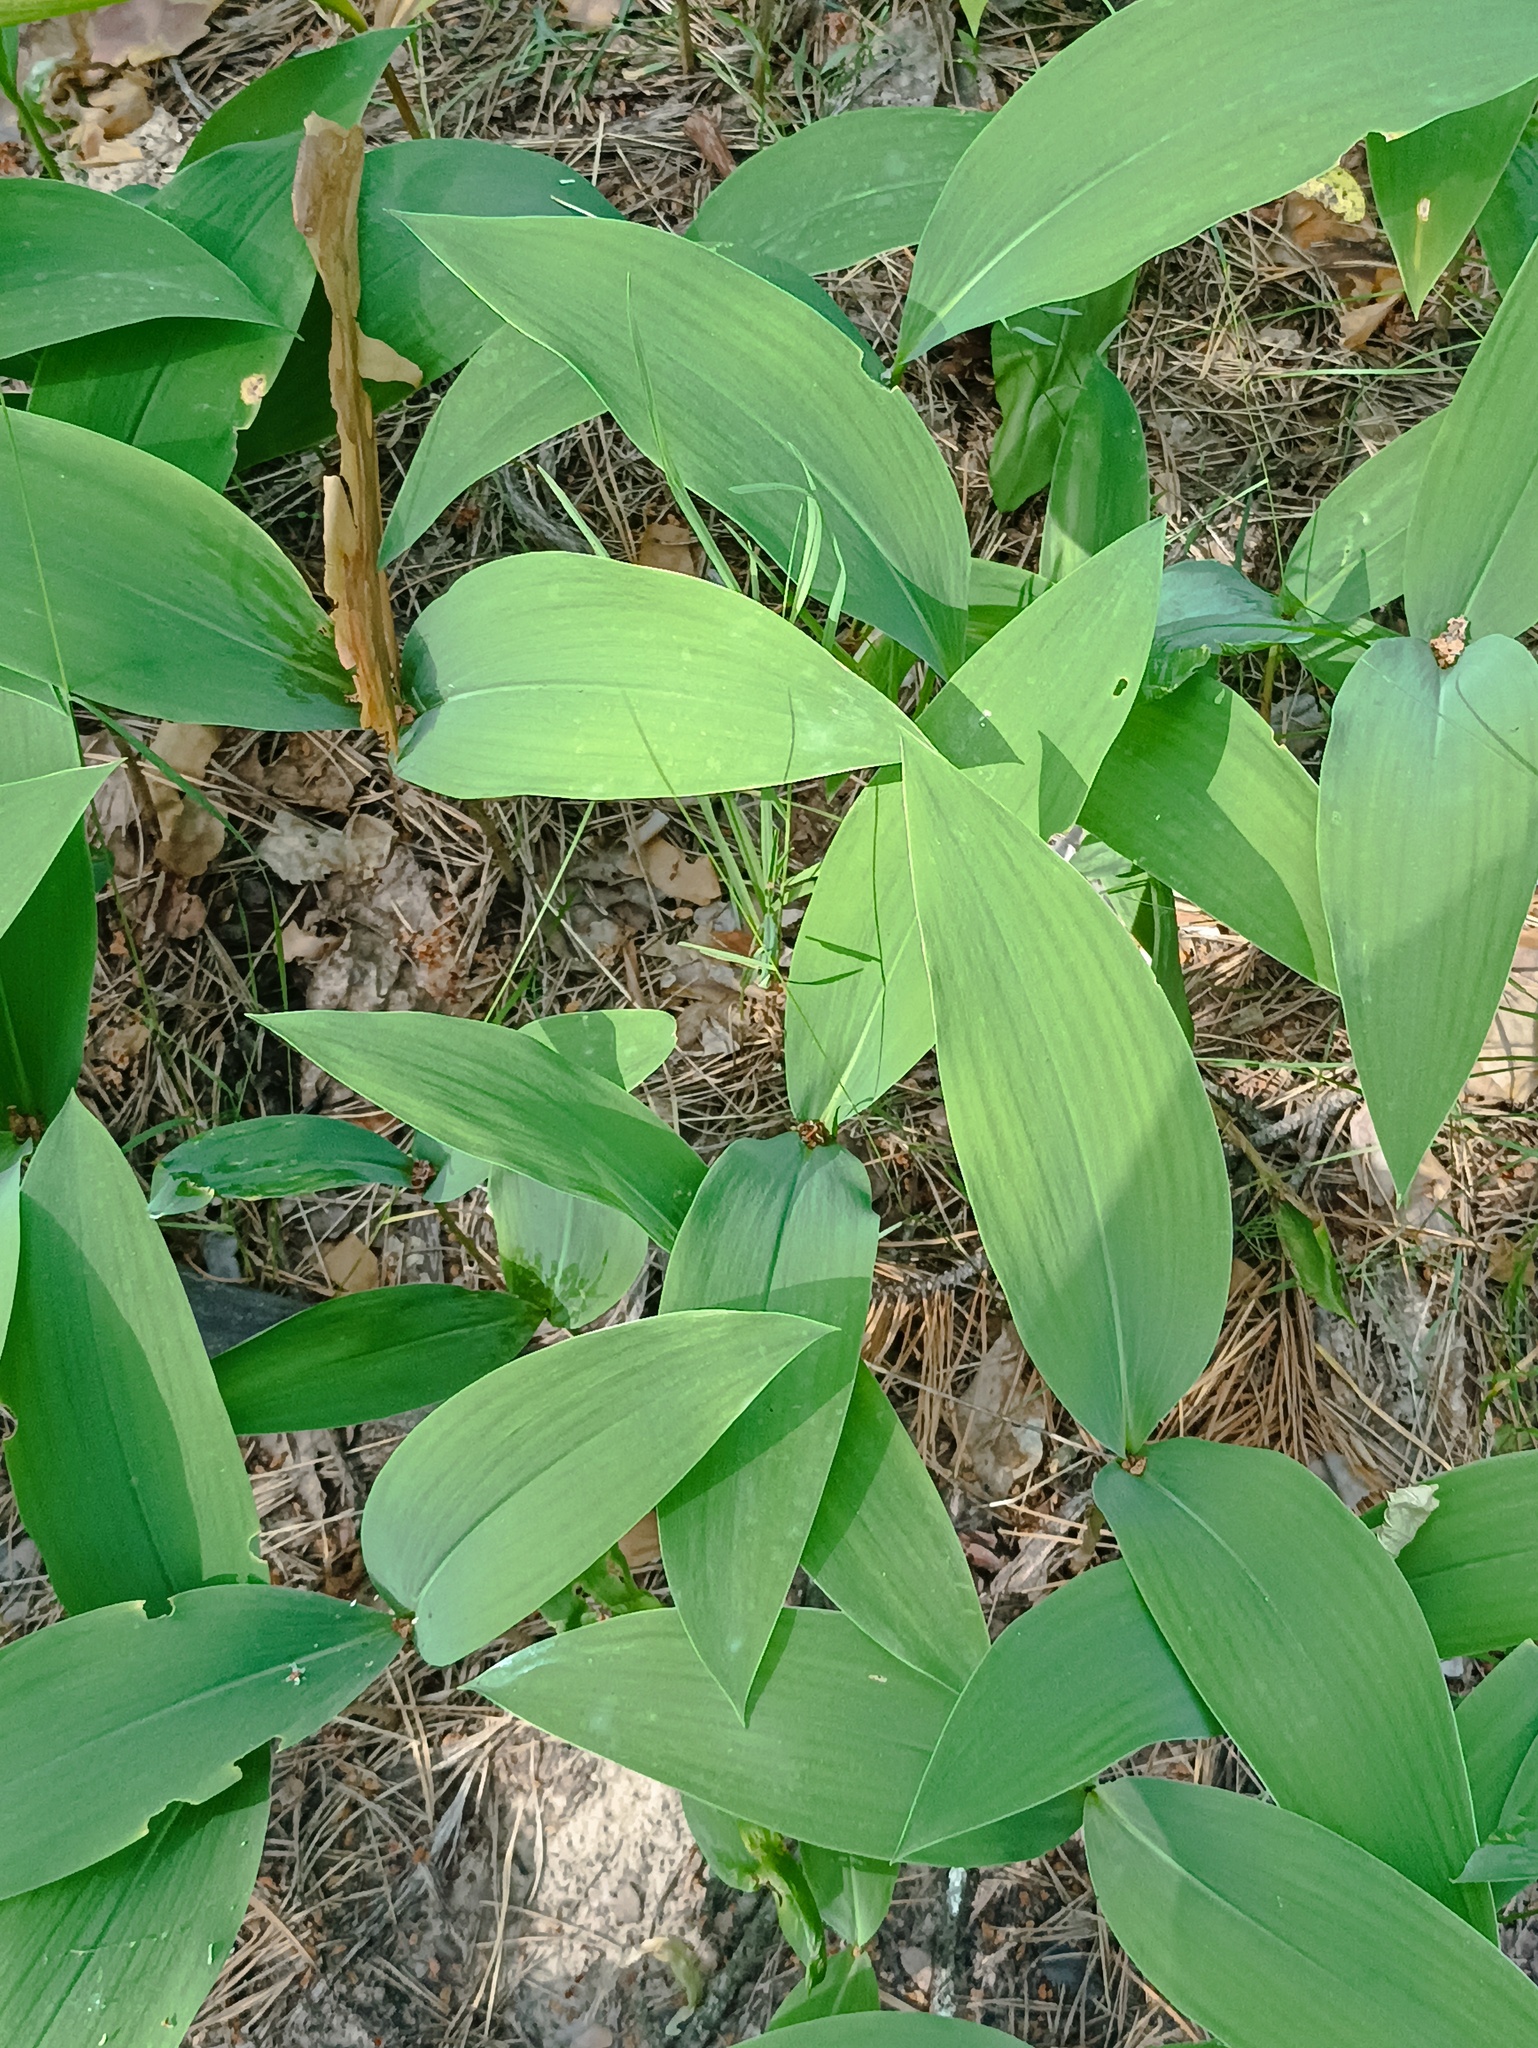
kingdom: Plantae
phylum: Tracheophyta
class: Liliopsida
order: Asparagales
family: Asparagaceae
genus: Convallaria
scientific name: Convallaria majalis
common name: Lily-of-the-valley
